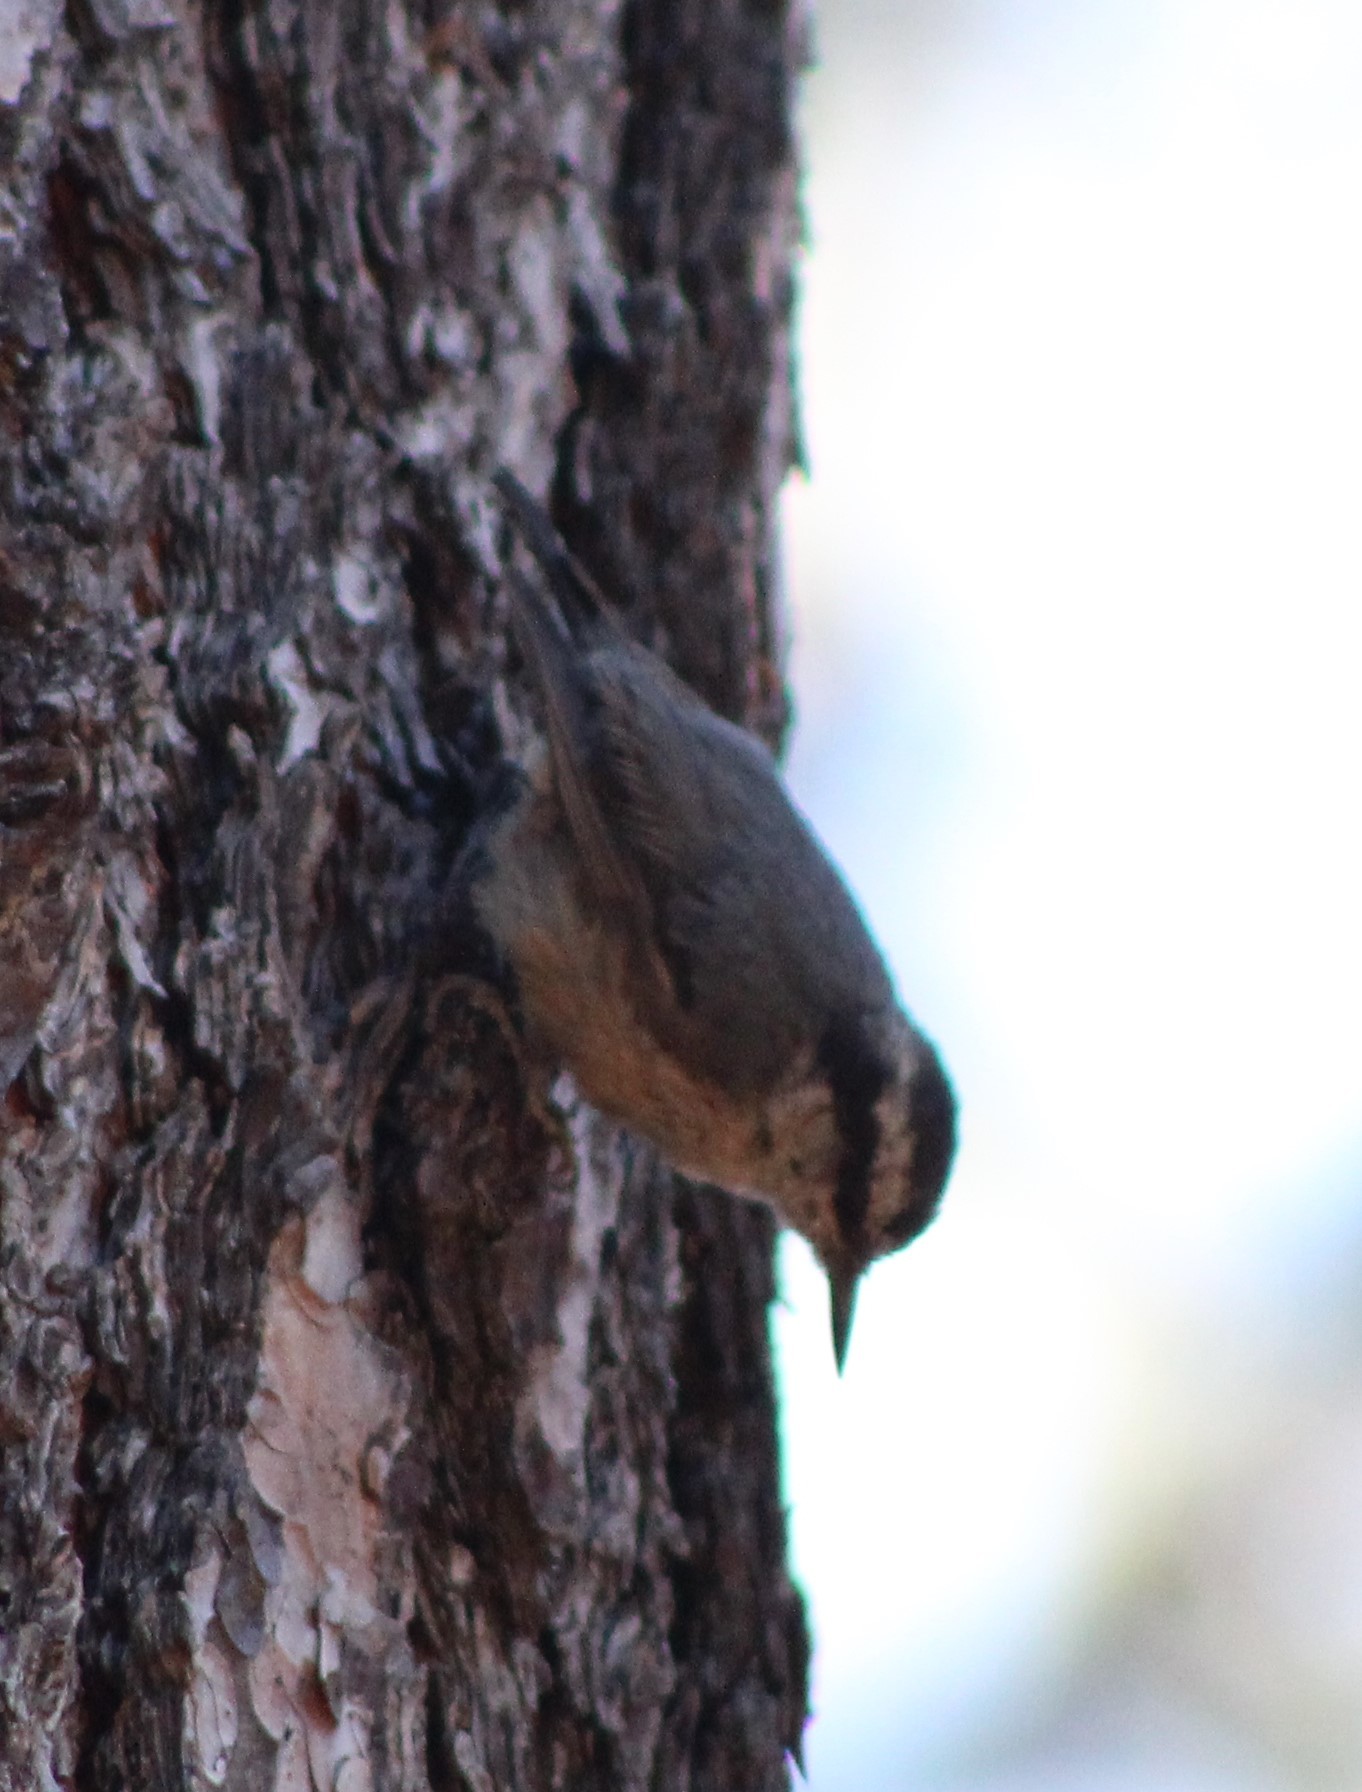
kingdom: Animalia
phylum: Chordata
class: Aves
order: Passeriformes
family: Sittidae
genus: Sitta
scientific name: Sitta canadensis
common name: Red-breasted nuthatch
